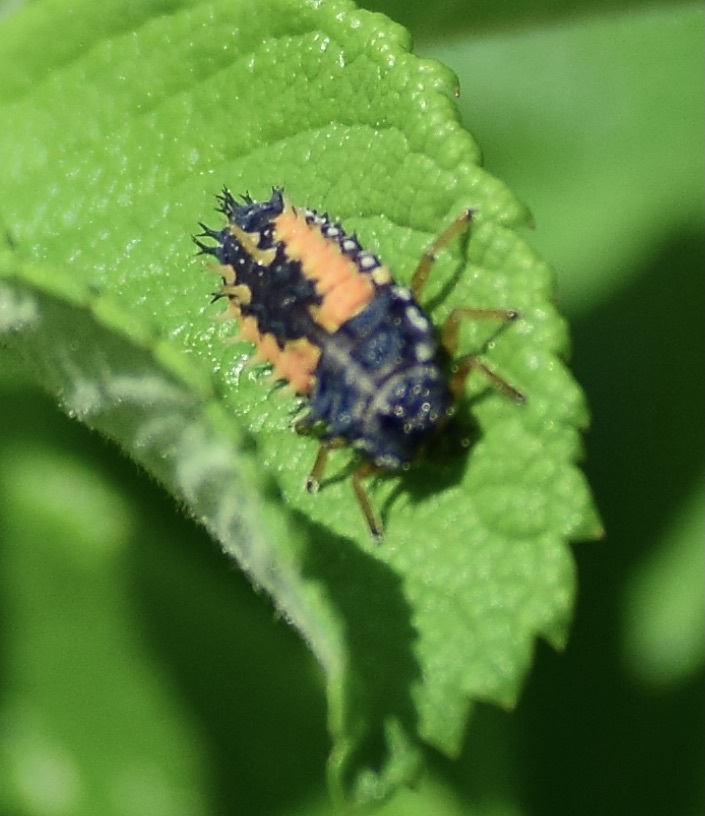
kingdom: Animalia
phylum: Arthropoda
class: Insecta
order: Coleoptera
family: Coccinellidae
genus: Harmonia
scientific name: Harmonia axyridis
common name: Harlequin ladybird
